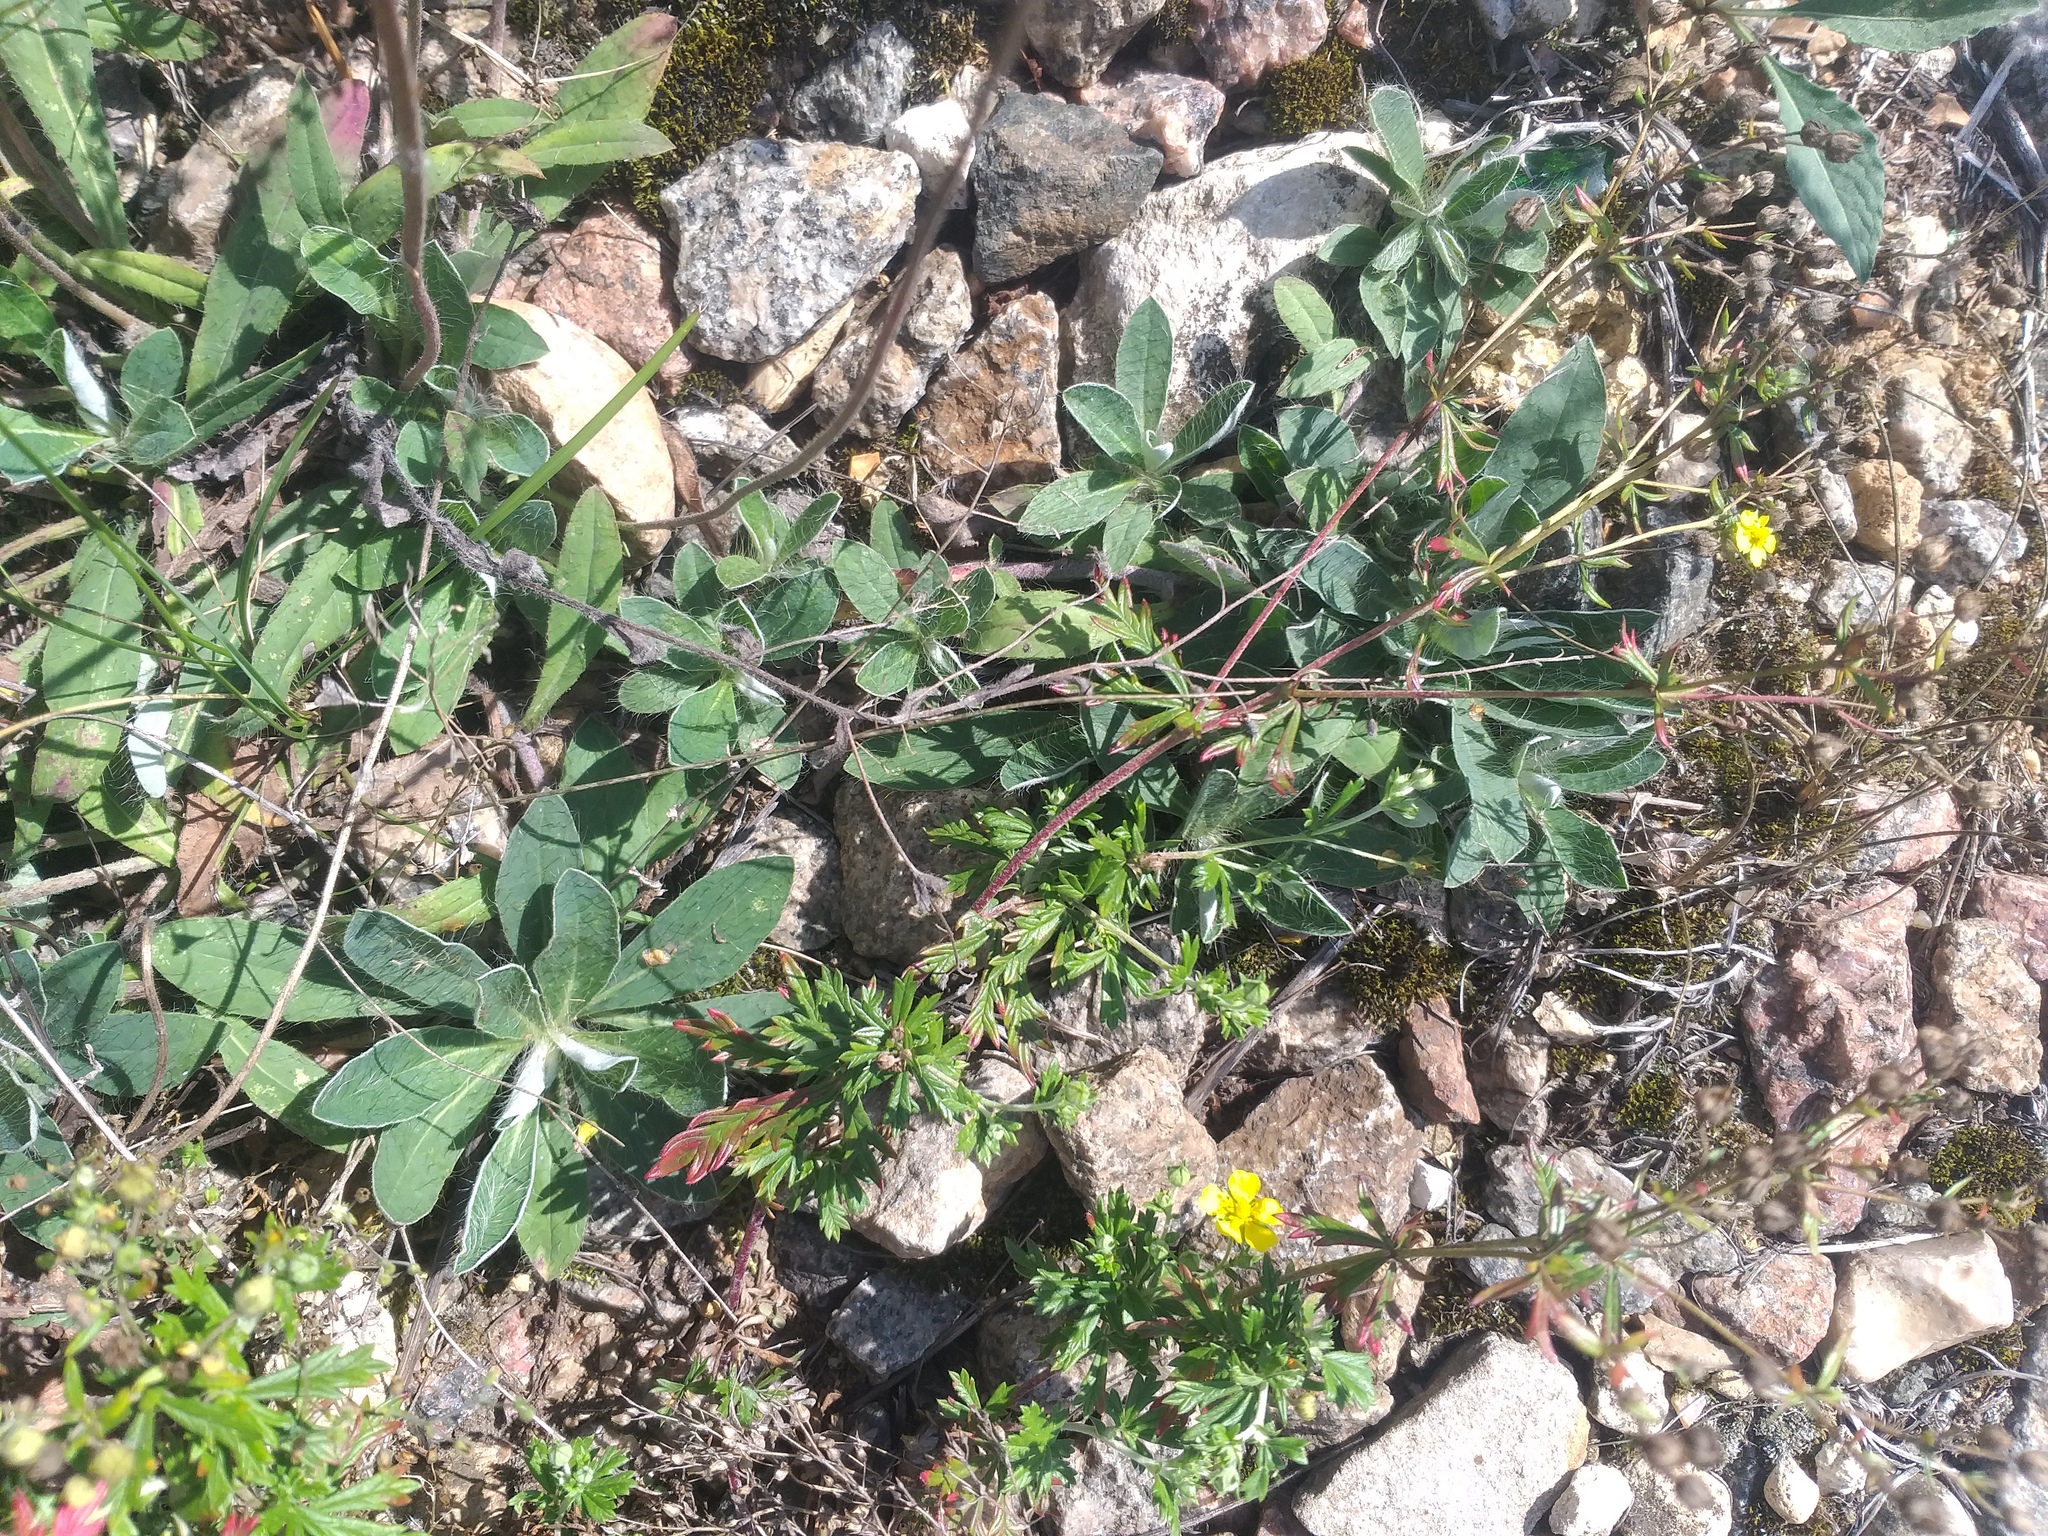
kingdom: Plantae
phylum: Tracheophyta
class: Magnoliopsida
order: Asterales
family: Asteraceae
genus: Pilosella
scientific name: Pilosella officinarum
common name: Mouse-ear hawkweed
